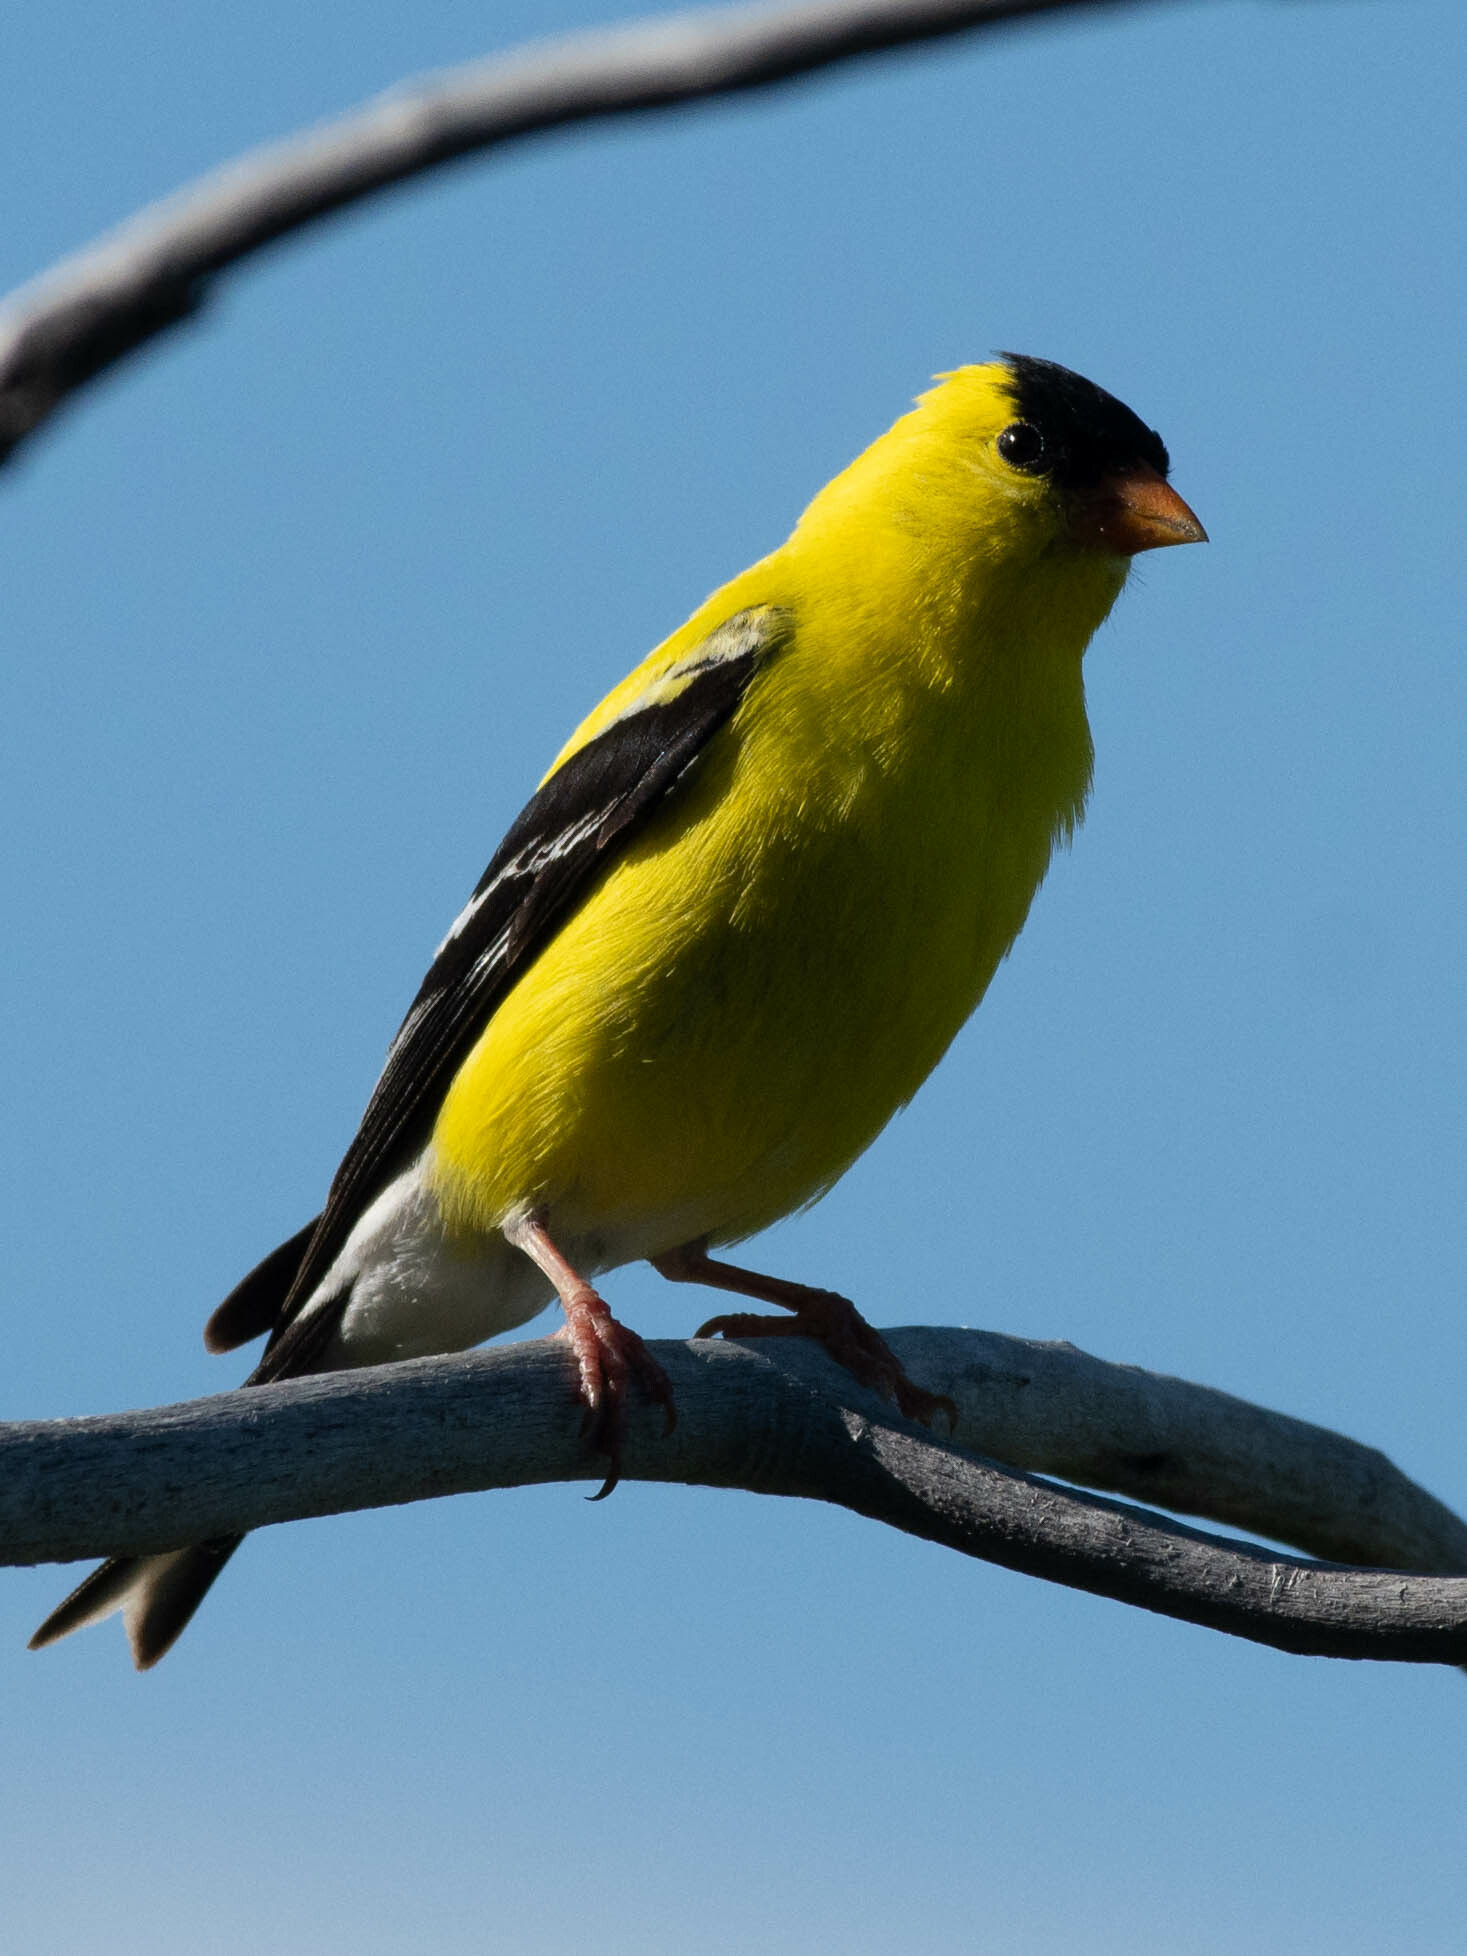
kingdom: Animalia
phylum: Chordata
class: Aves
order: Passeriformes
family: Fringillidae
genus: Spinus
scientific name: Spinus tristis
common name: American goldfinch
